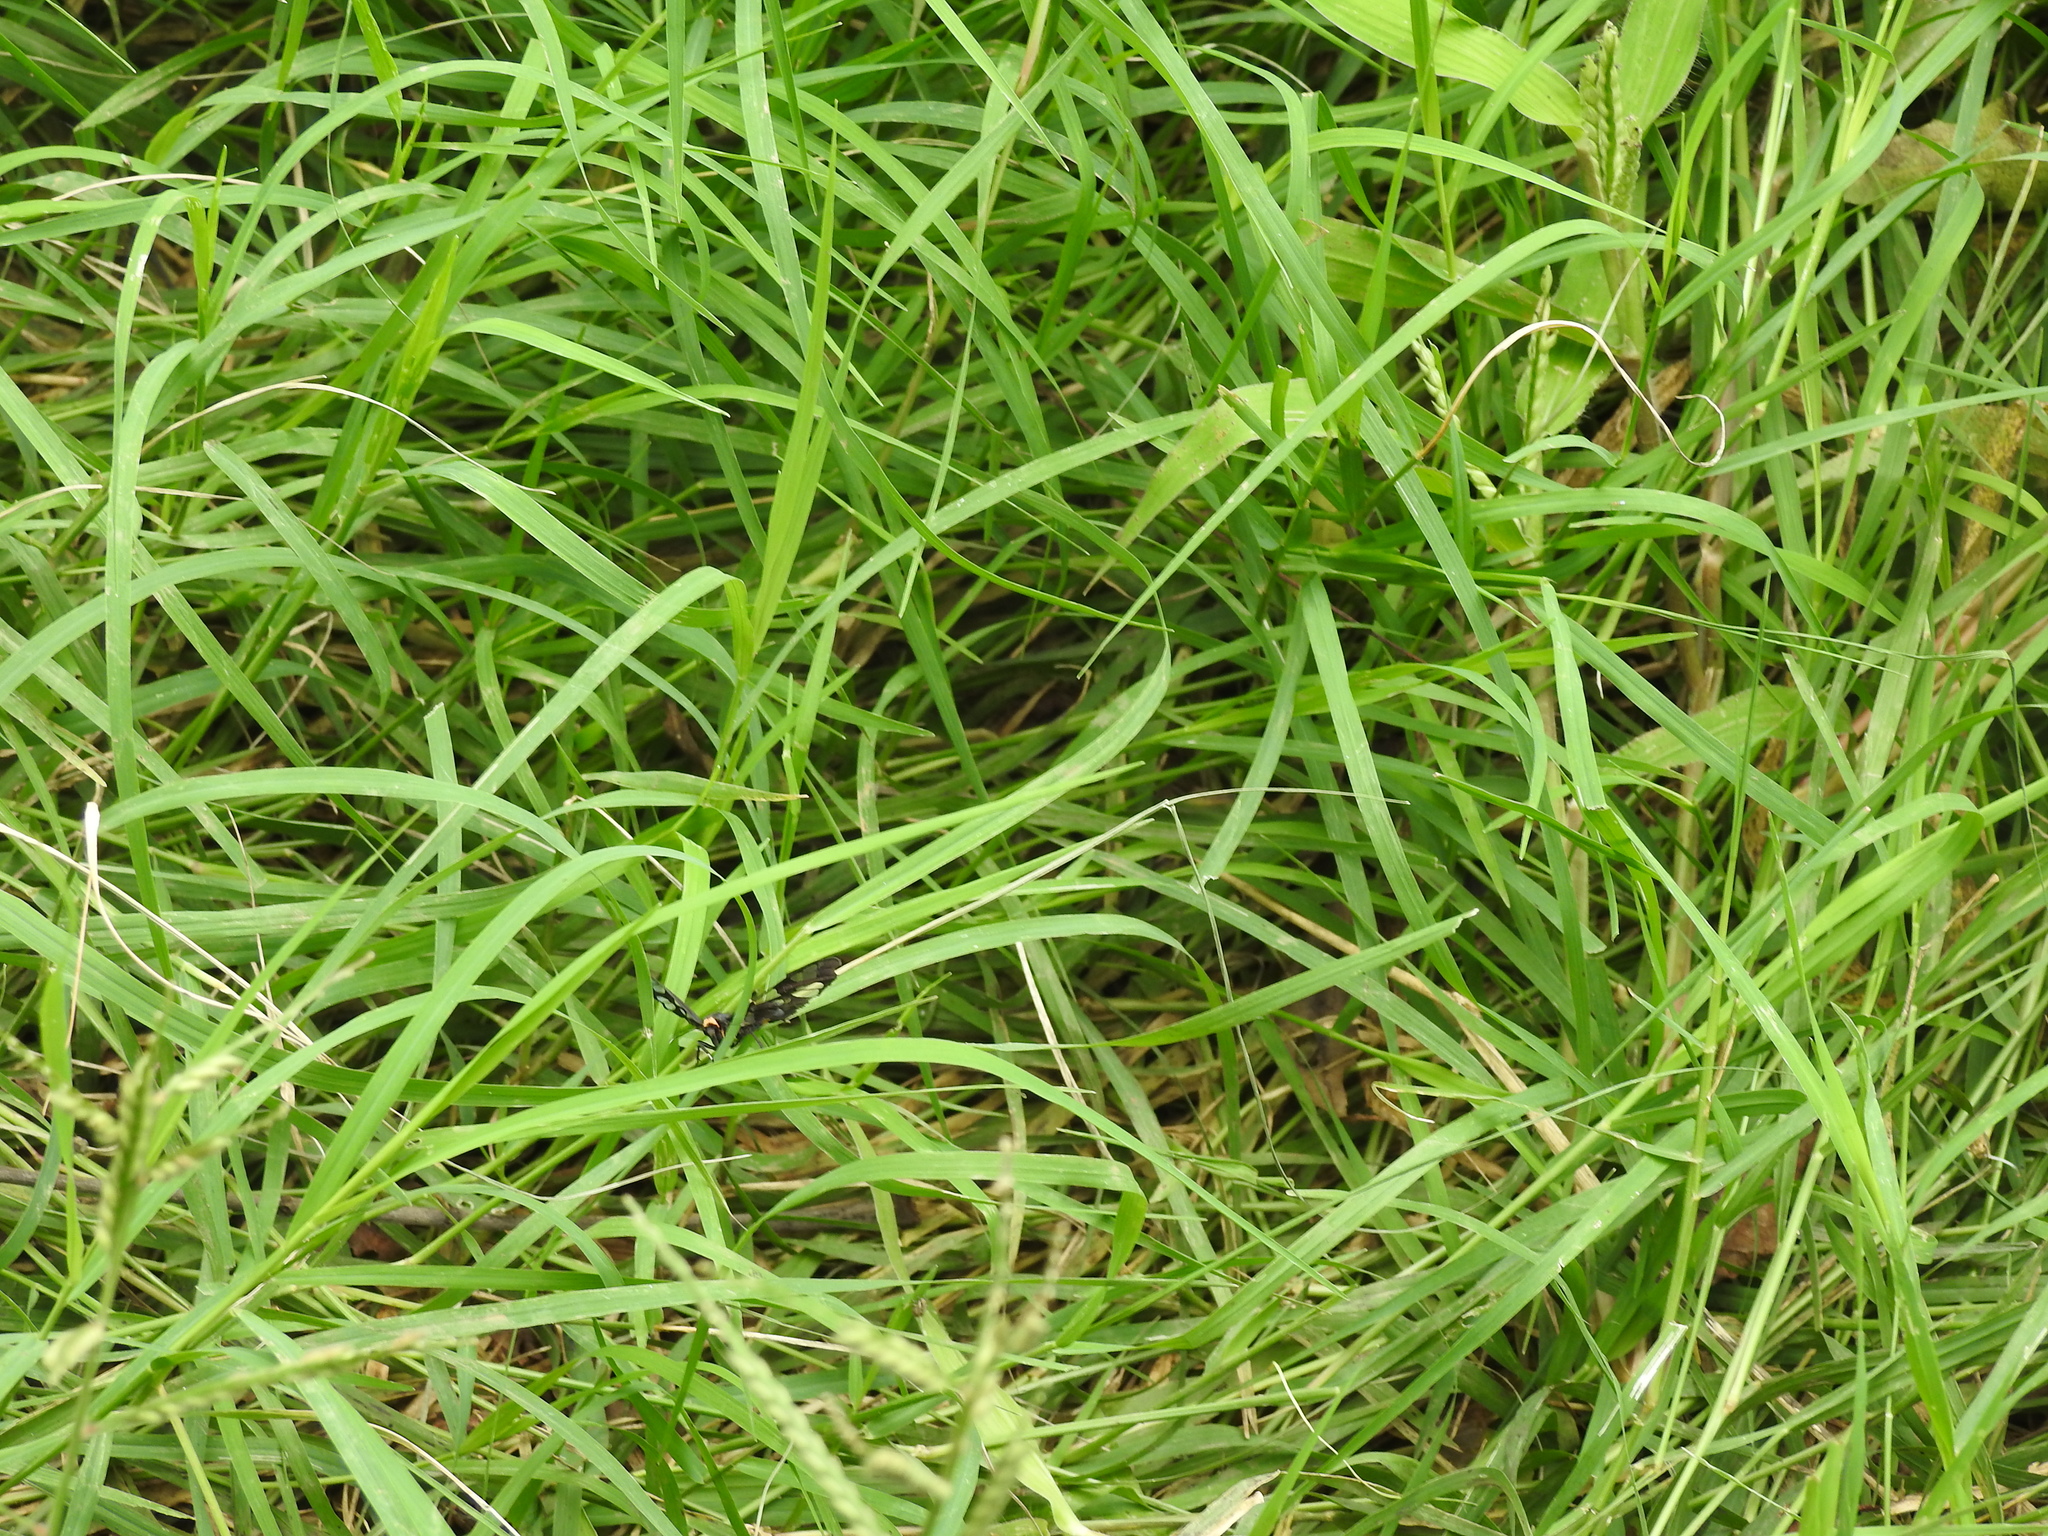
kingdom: Animalia
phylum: Arthropoda
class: Insecta
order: Lepidoptera
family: Erebidae
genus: Syntomoides
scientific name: Syntomoides imaon
